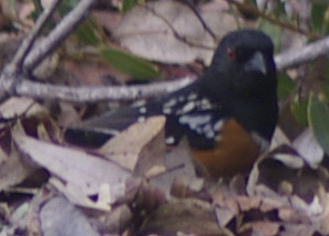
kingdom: Animalia
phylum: Chordata
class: Aves
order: Passeriformes
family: Passerellidae
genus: Pipilo
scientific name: Pipilo maculatus
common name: Spotted towhee
